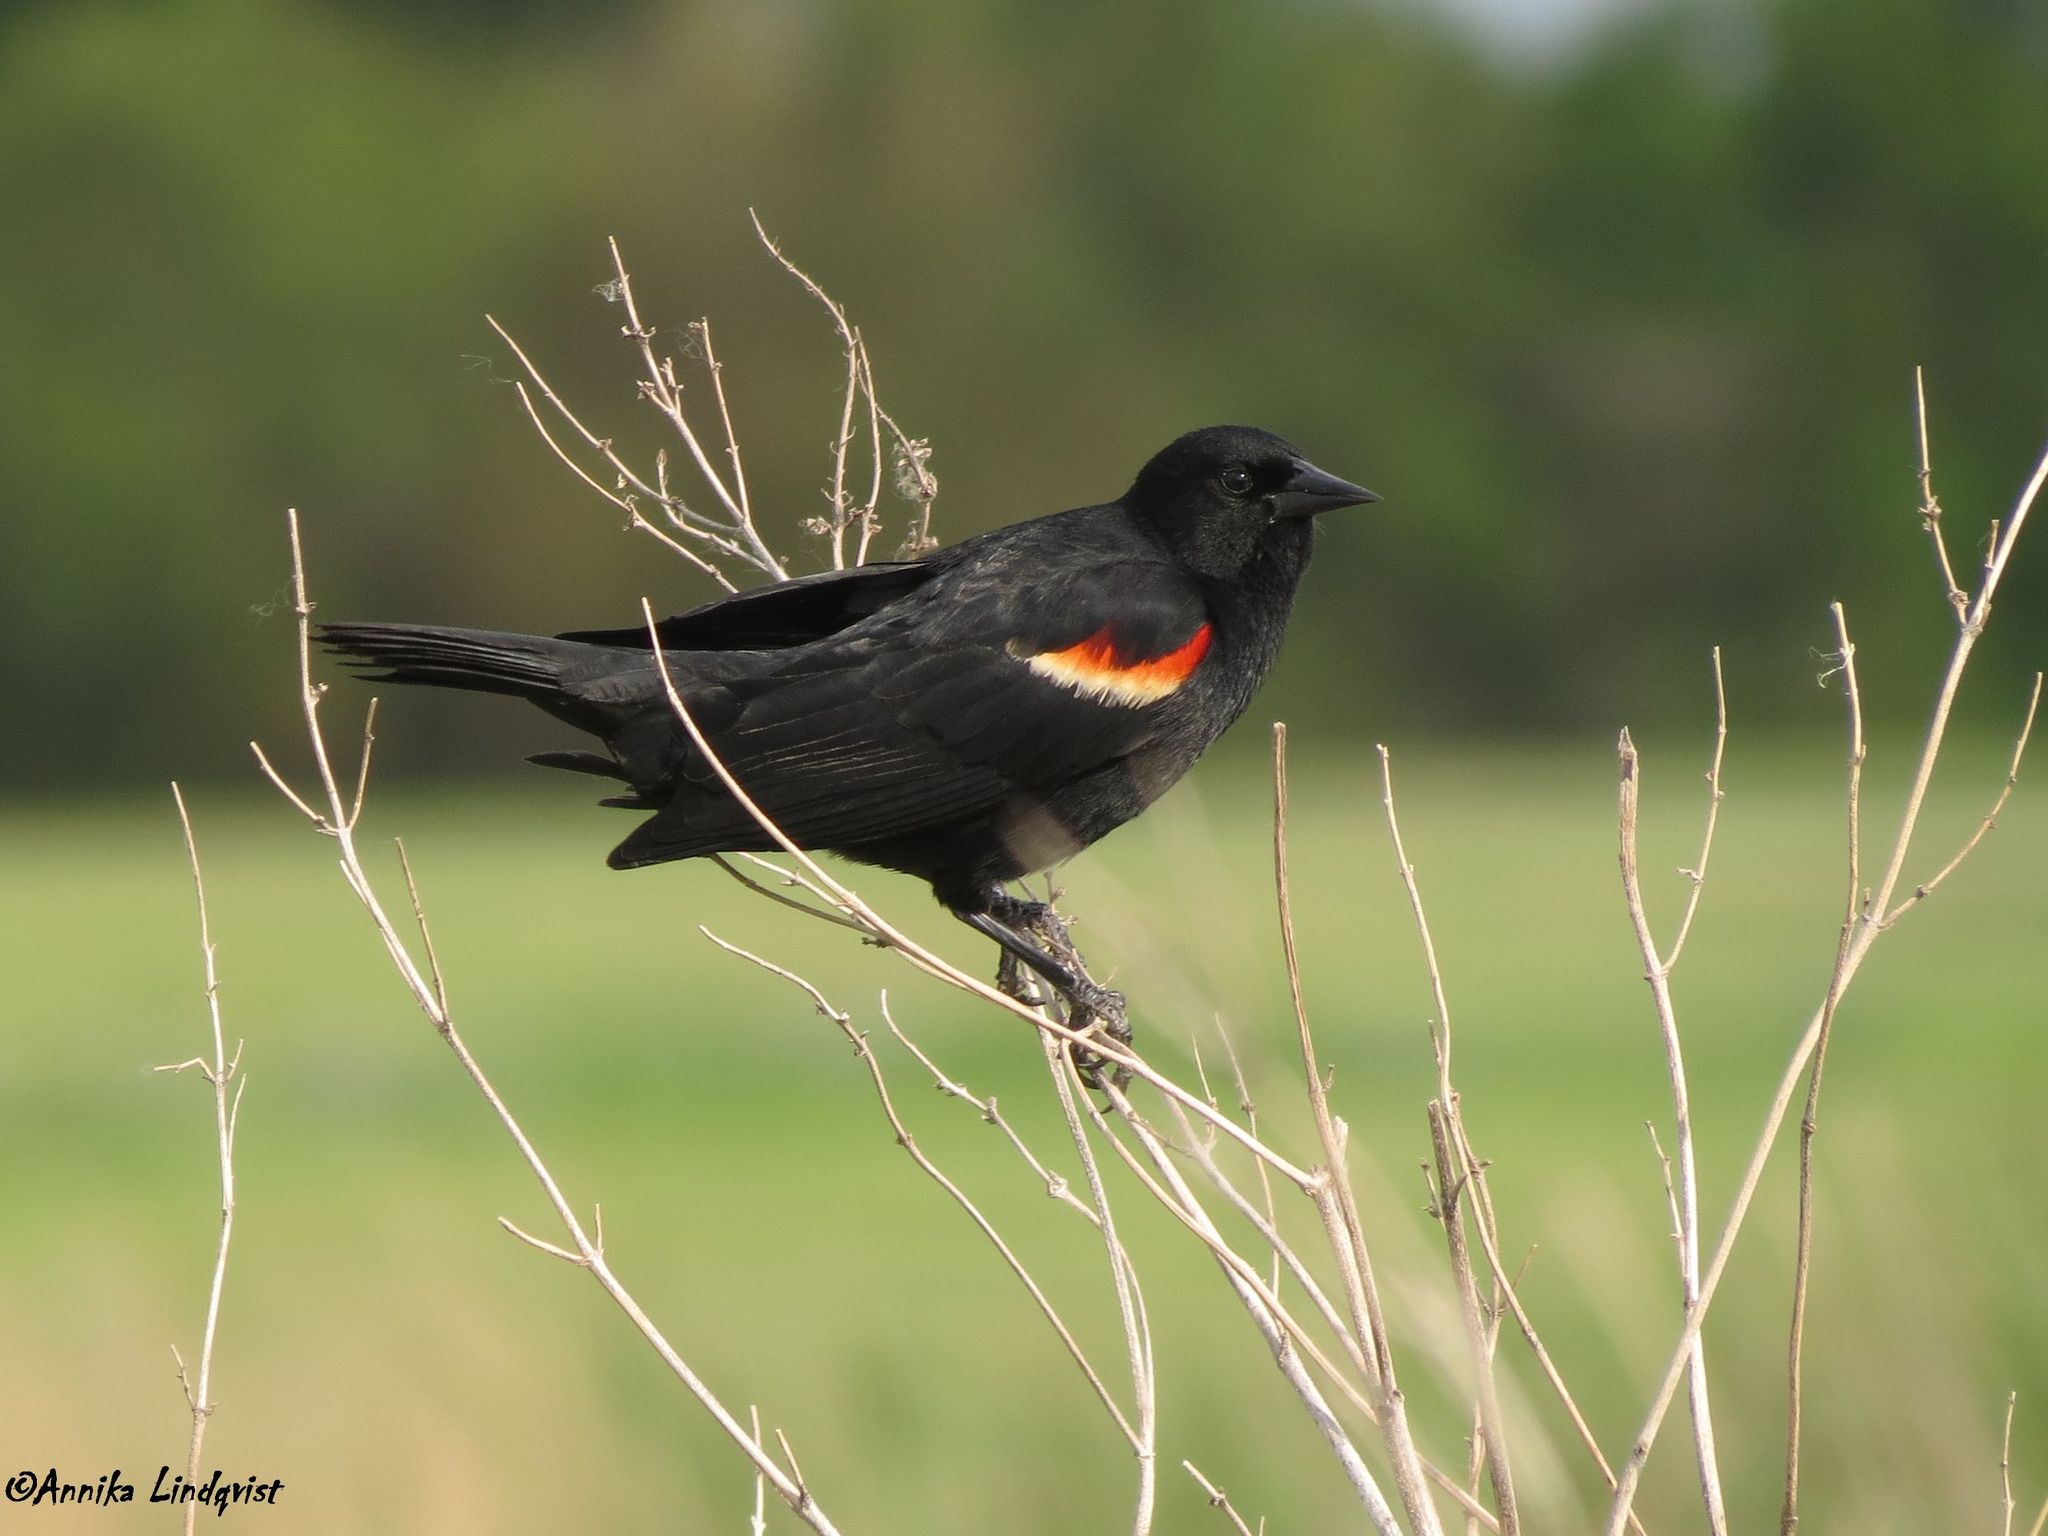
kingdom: Animalia
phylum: Chordata
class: Aves
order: Passeriformes
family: Icteridae
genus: Agelaius
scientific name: Agelaius phoeniceus
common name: Red-winged blackbird
